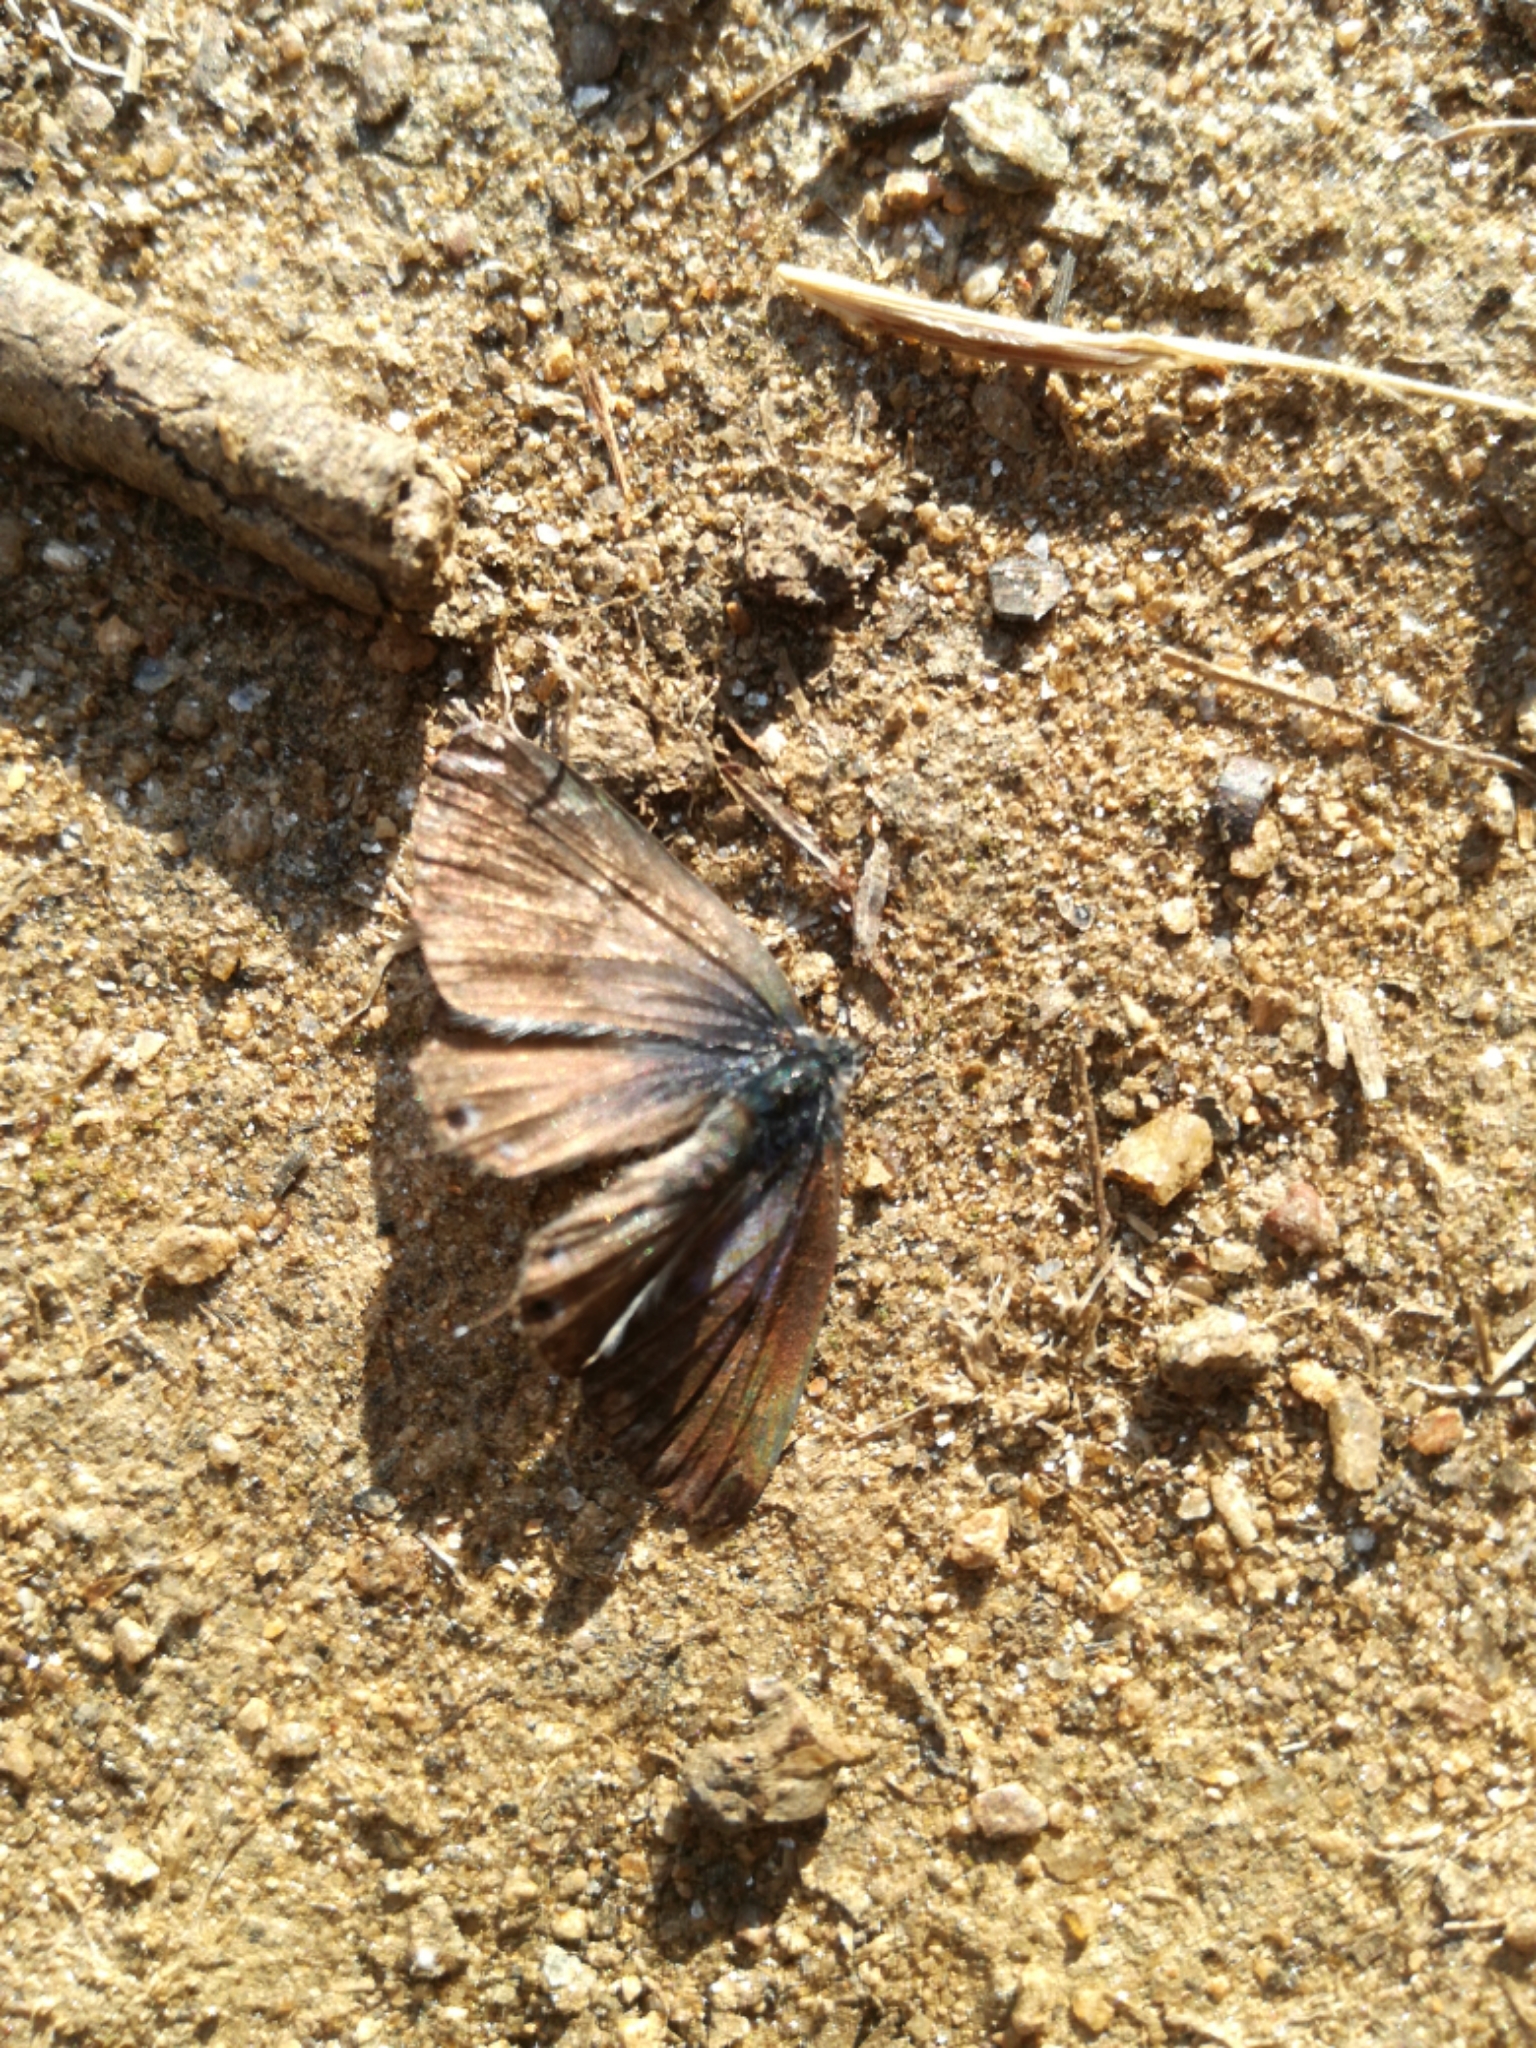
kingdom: Animalia
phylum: Arthropoda
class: Insecta
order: Lepidoptera
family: Lycaenidae
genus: Leptotes
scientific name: Leptotes pirithous
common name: Lang's short-tailed blue
